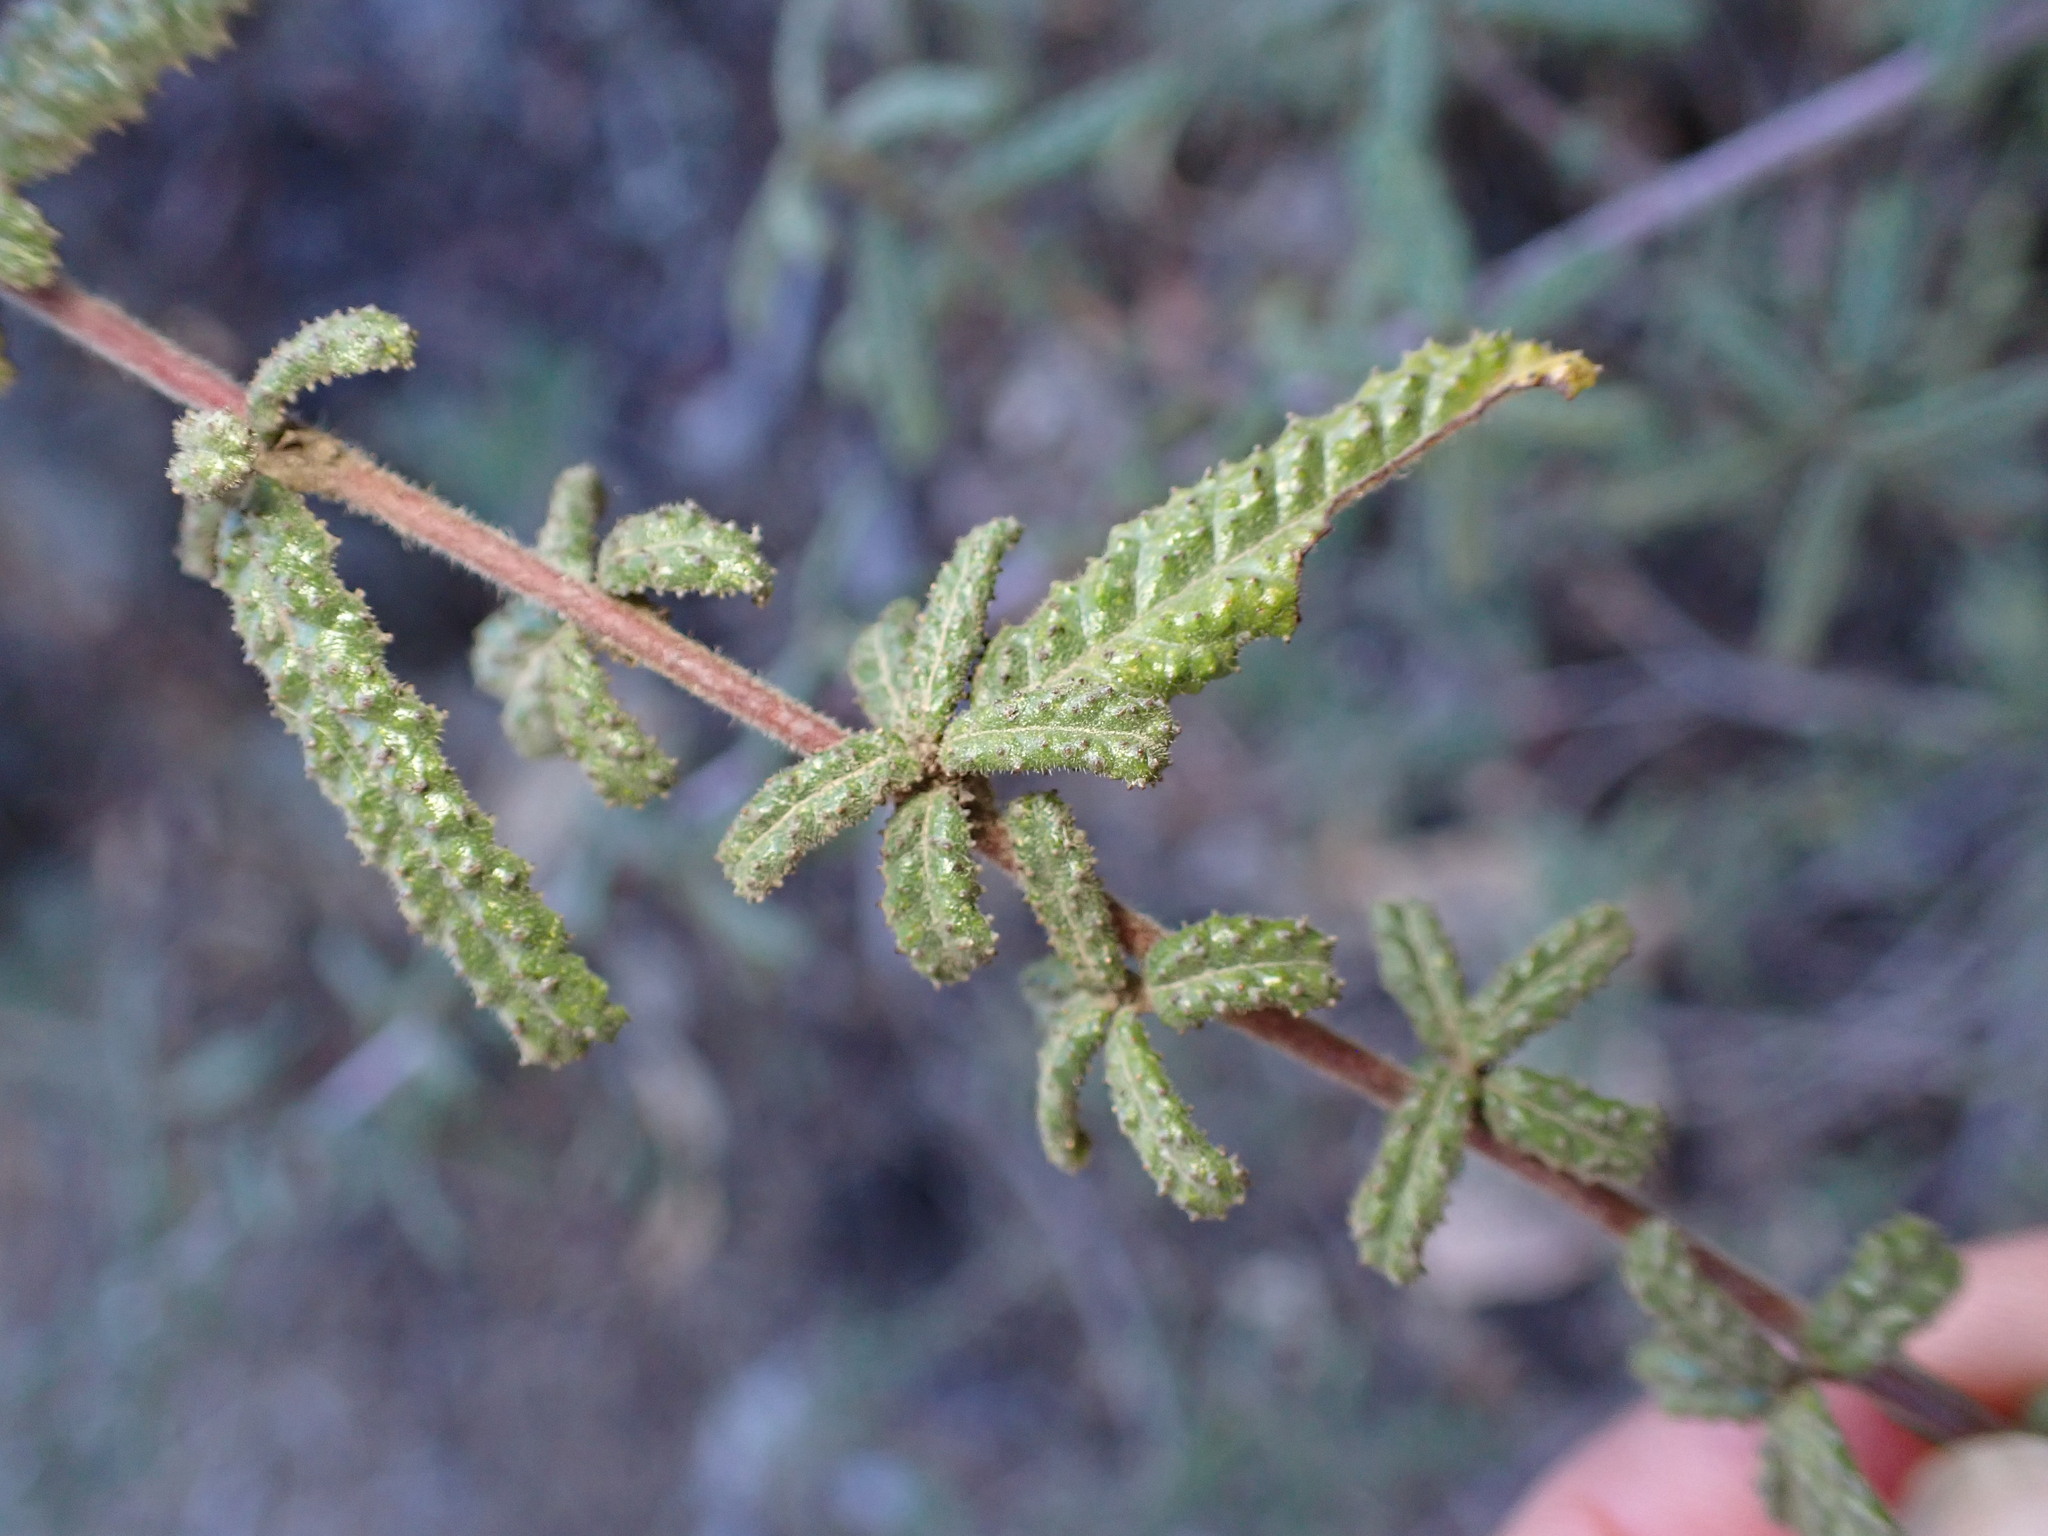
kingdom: Plantae
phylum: Tracheophyta
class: Magnoliopsida
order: Rosales
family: Rhamnaceae
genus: Ceanothus
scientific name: Ceanothus papillosus
